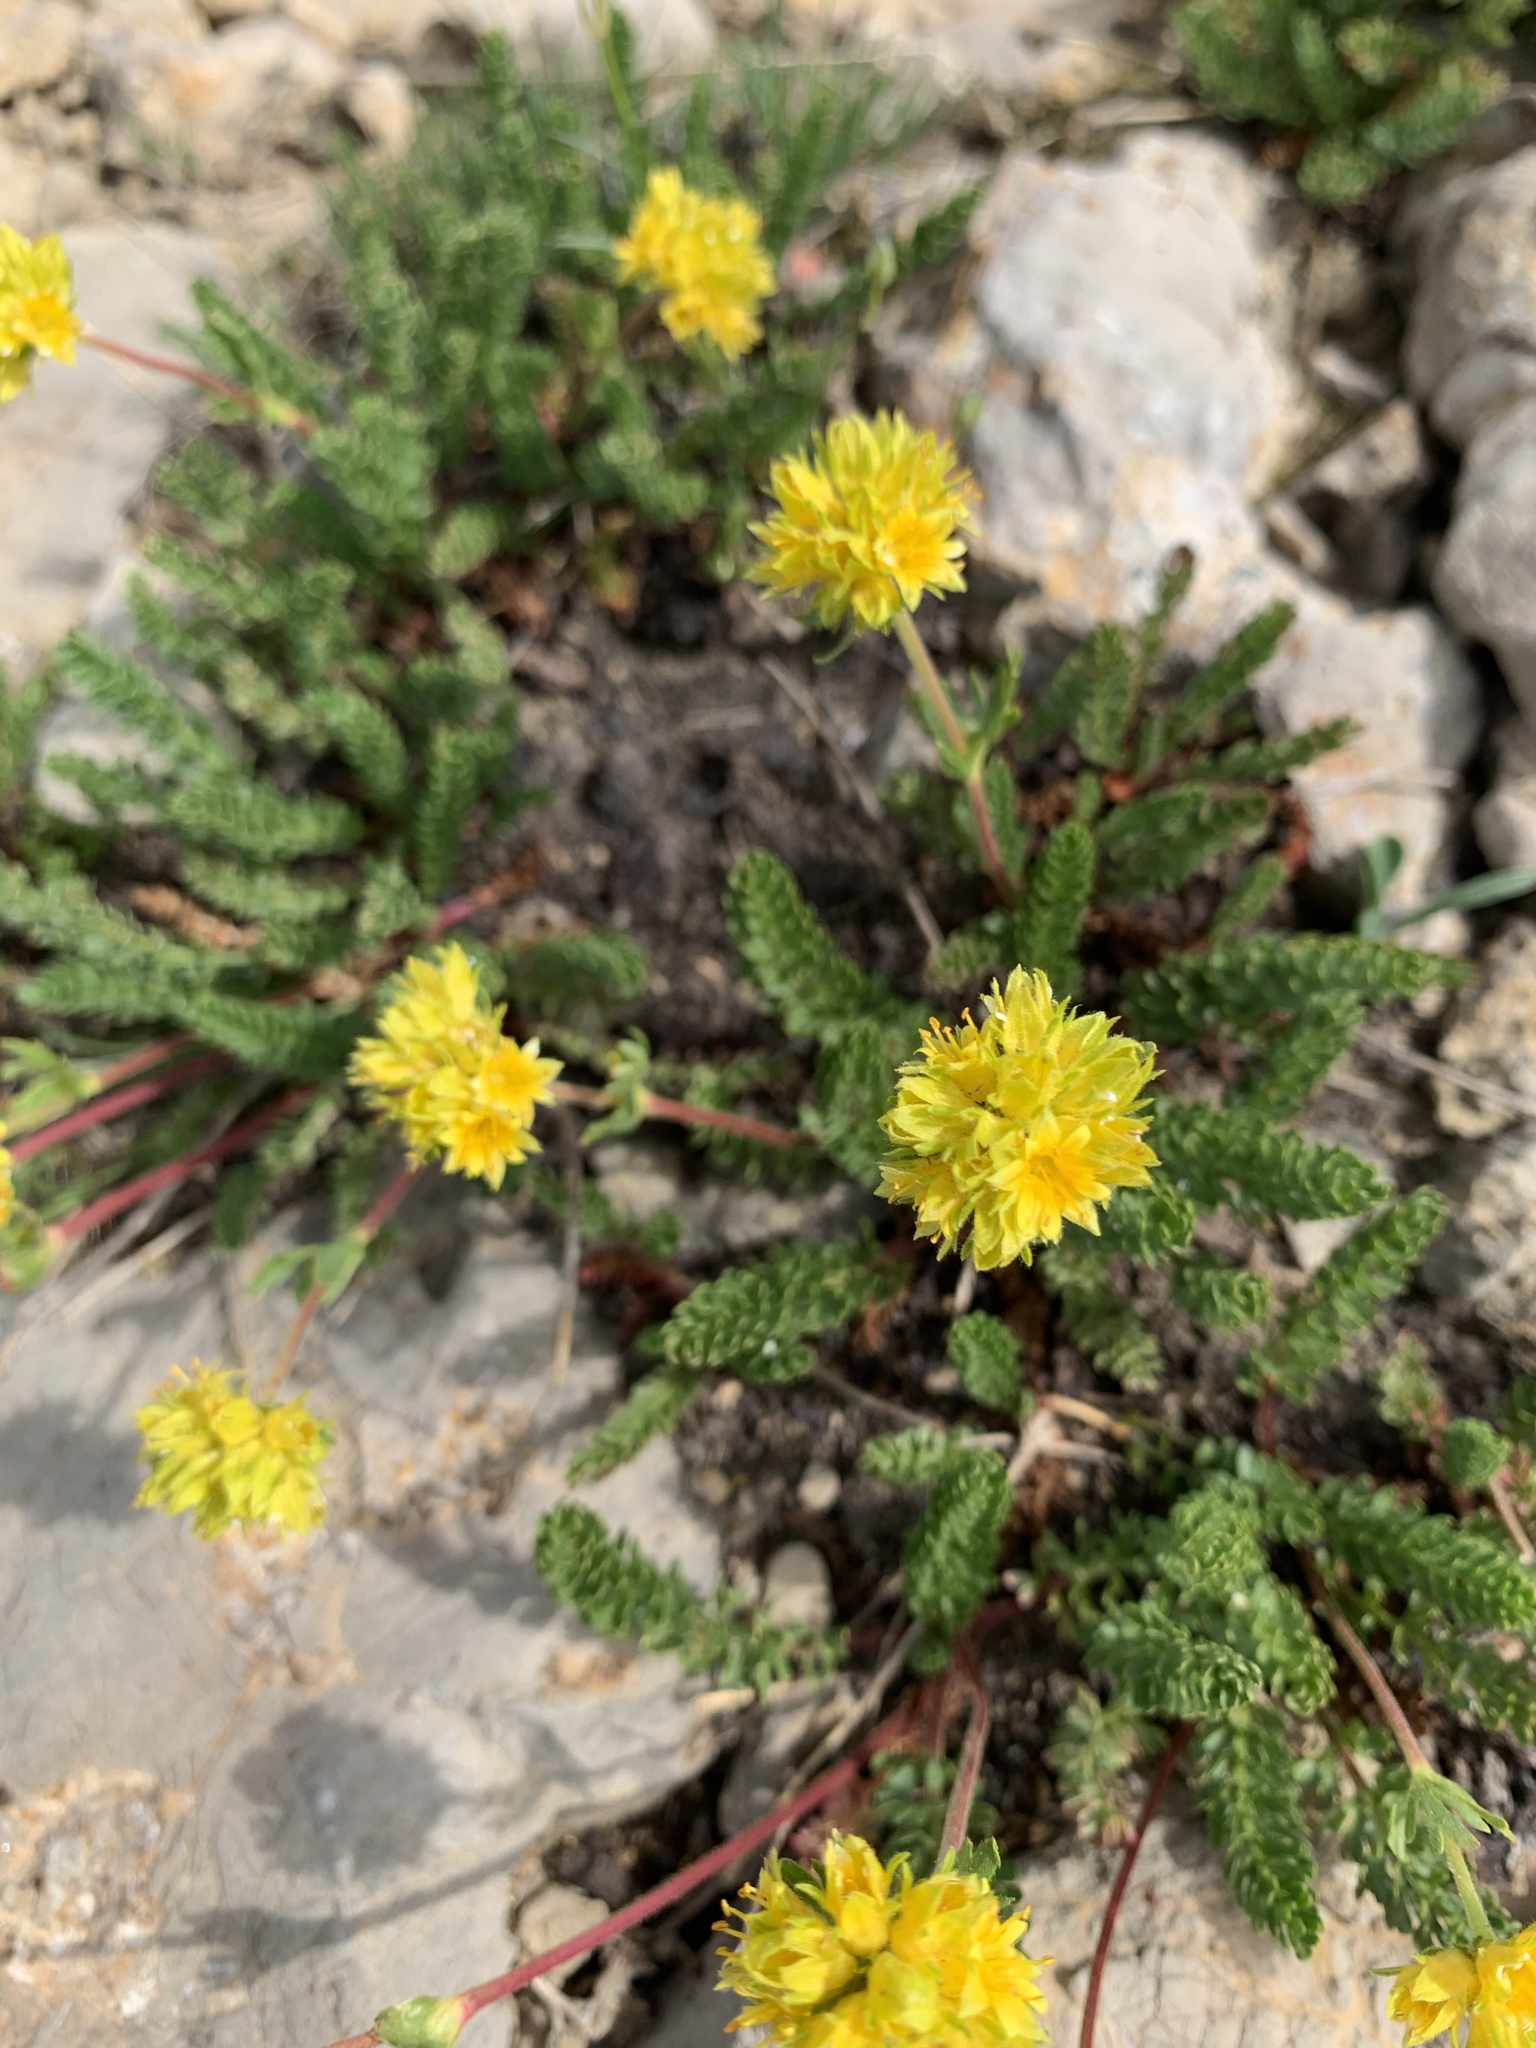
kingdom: Plantae
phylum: Tracheophyta
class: Magnoliopsida
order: Rosales
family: Rosaceae
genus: Potentilla
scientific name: Potentilla gordonii
